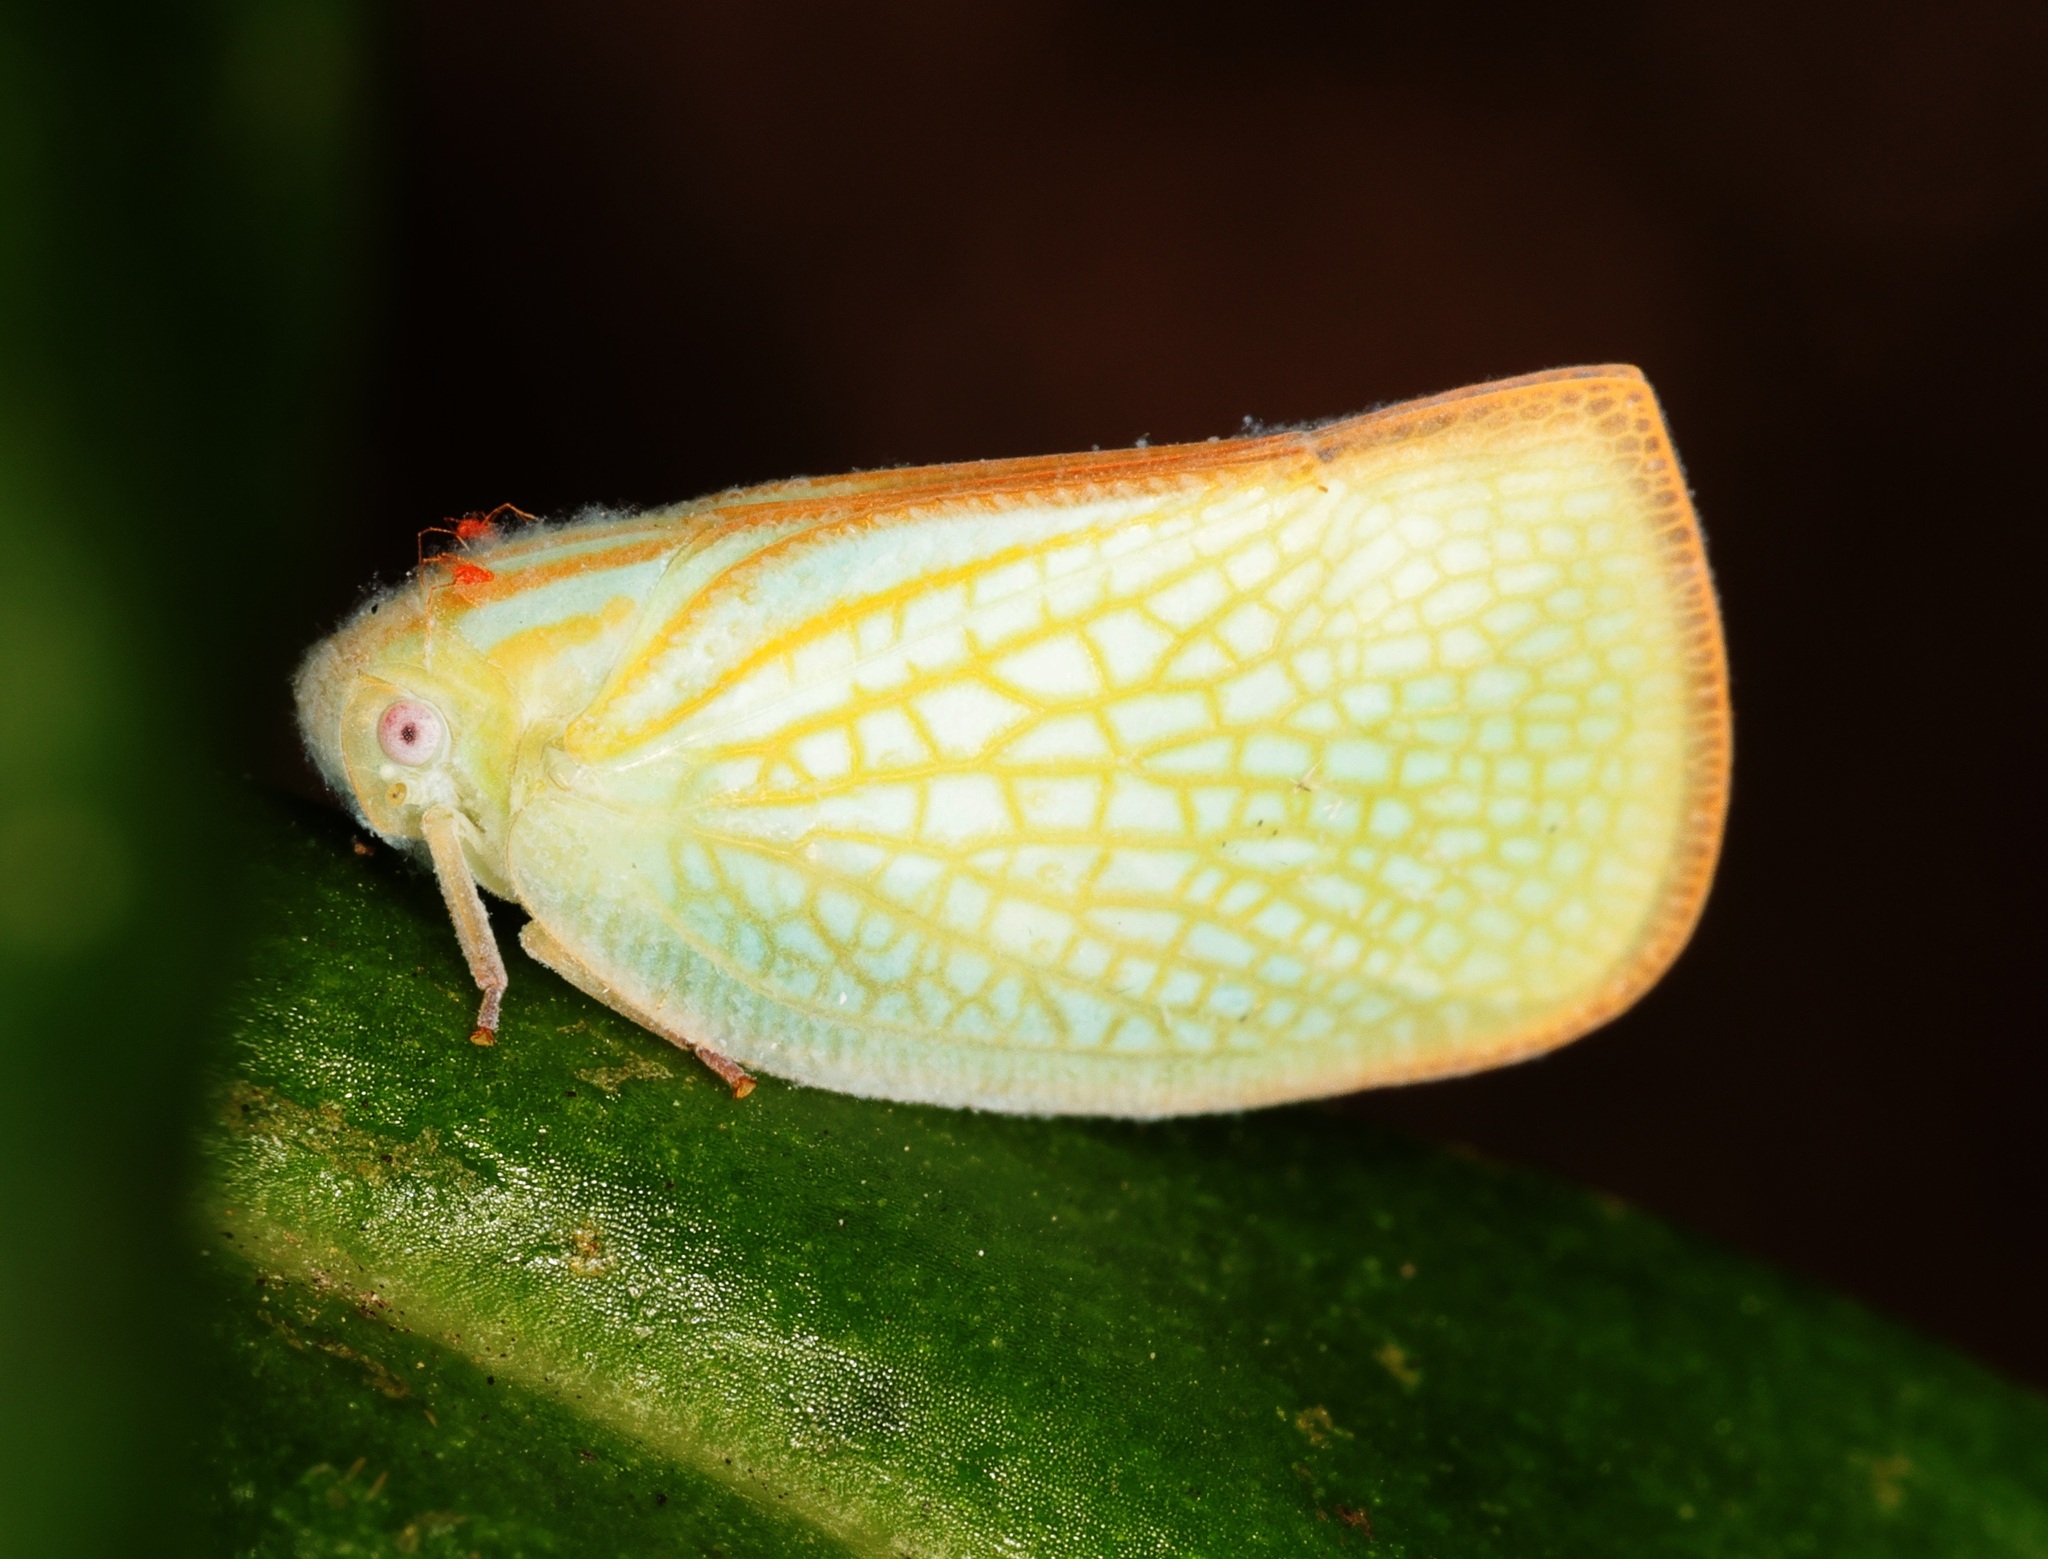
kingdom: Animalia
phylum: Arthropoda
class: Insecta
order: Hemiptera
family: Flatidae
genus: Geisha
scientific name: Geisha distinctissima
